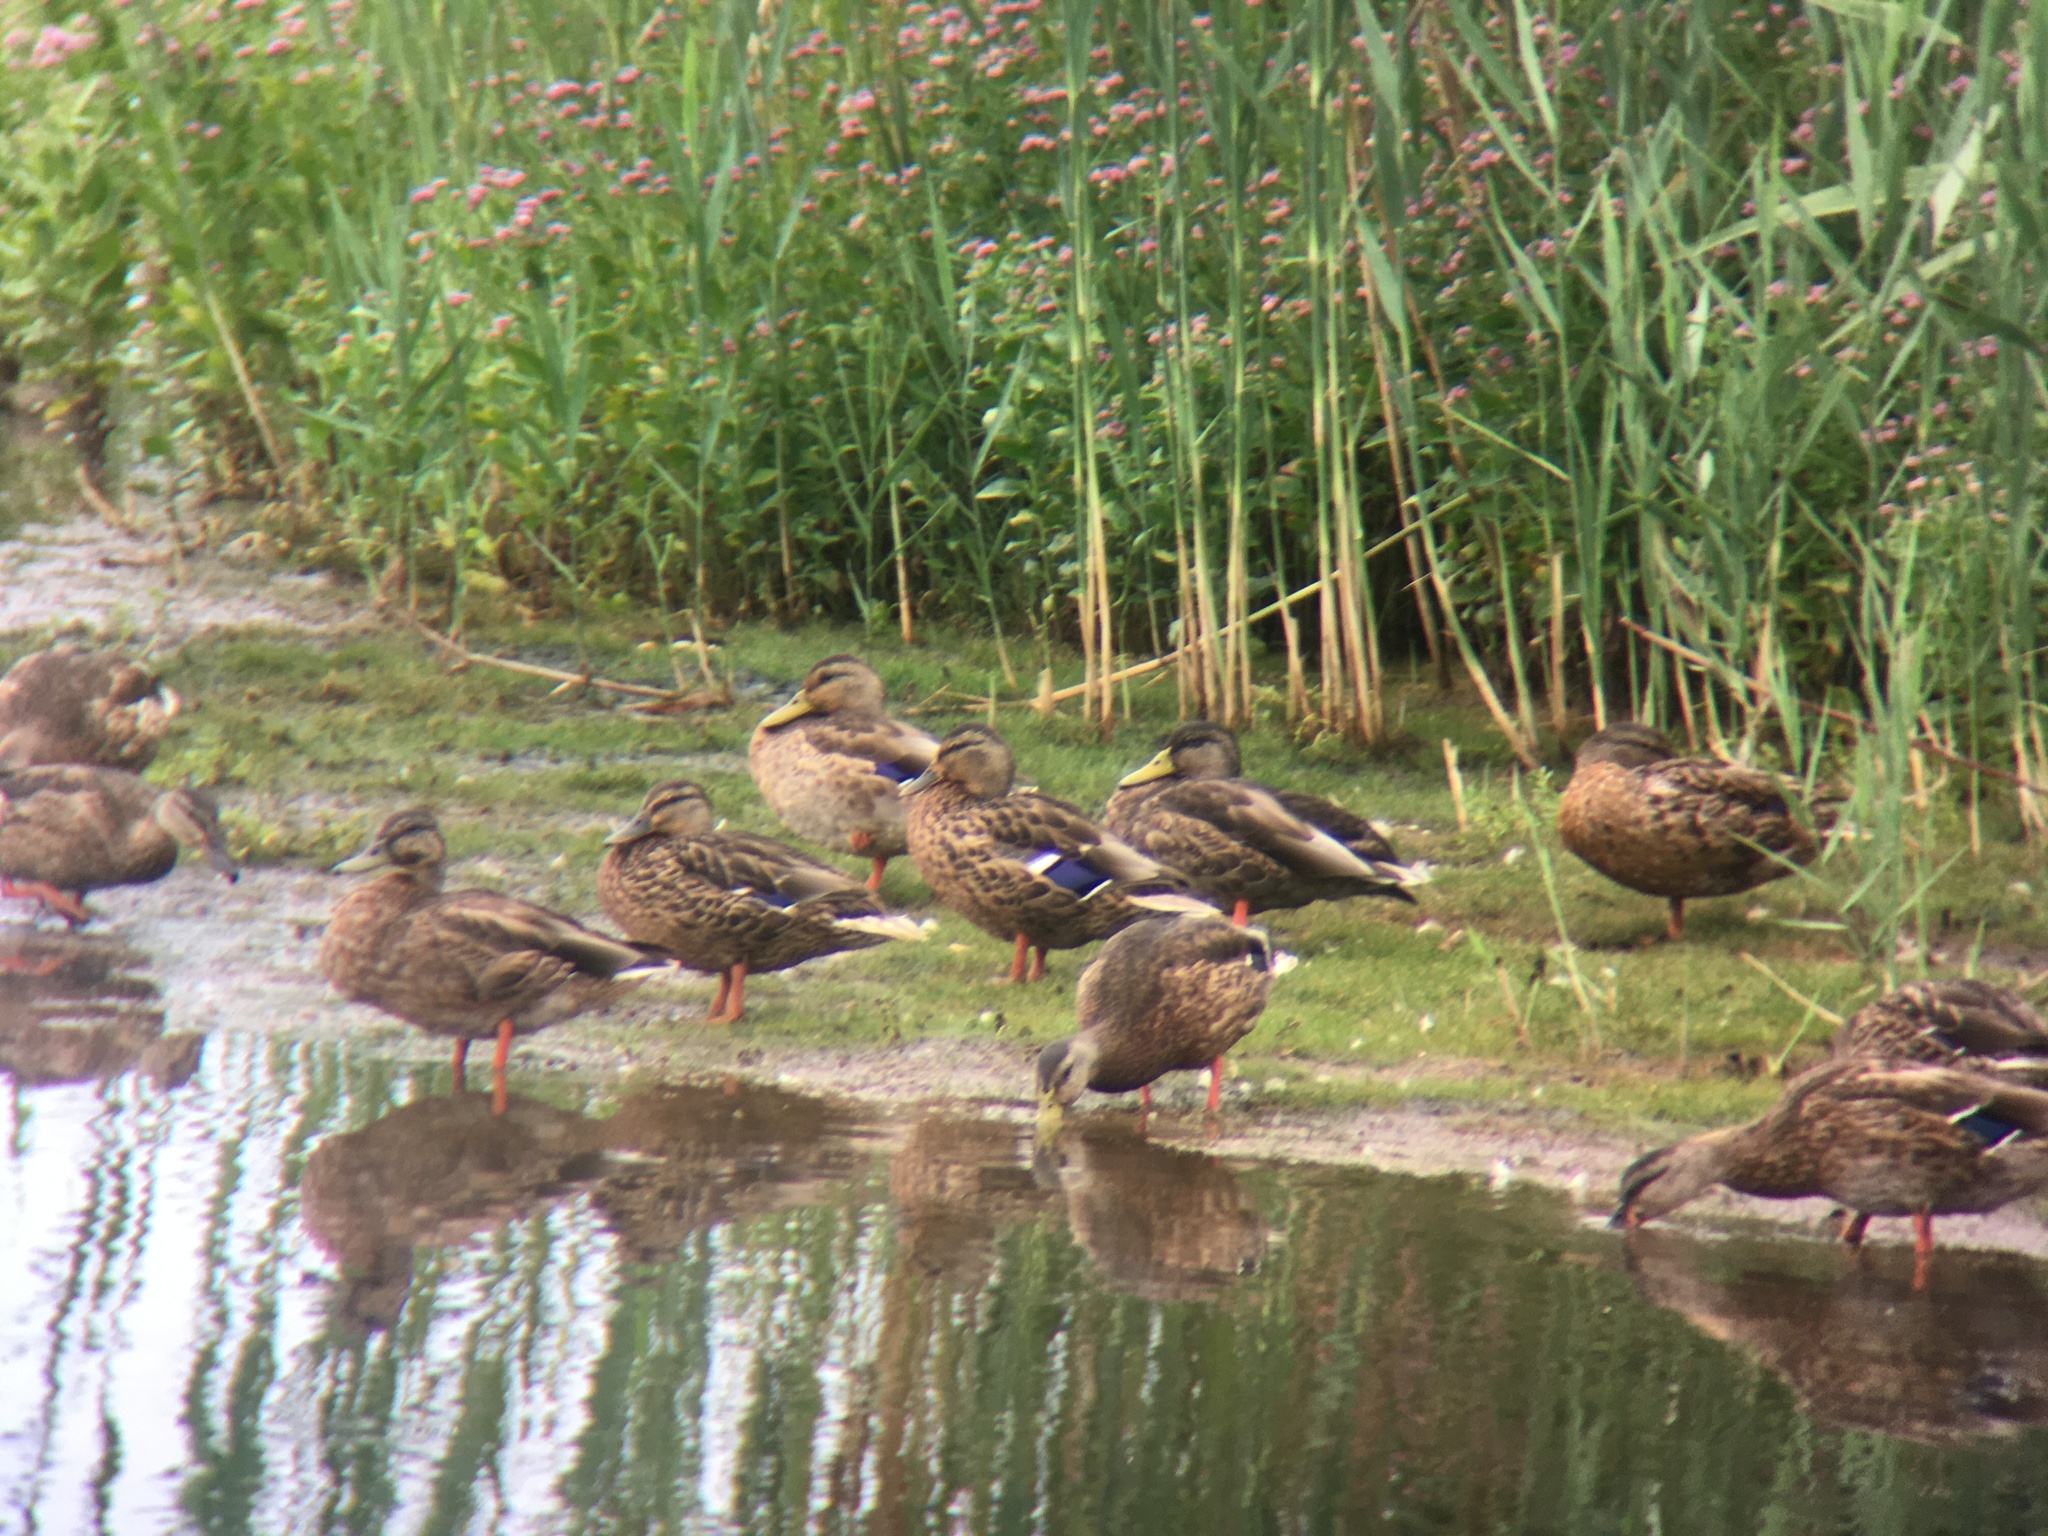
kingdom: Animalia
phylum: Chordata
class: Aves
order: Anseriformes
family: Anatidae
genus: Anas
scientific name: Anas platyrhynchos
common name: Mallard
